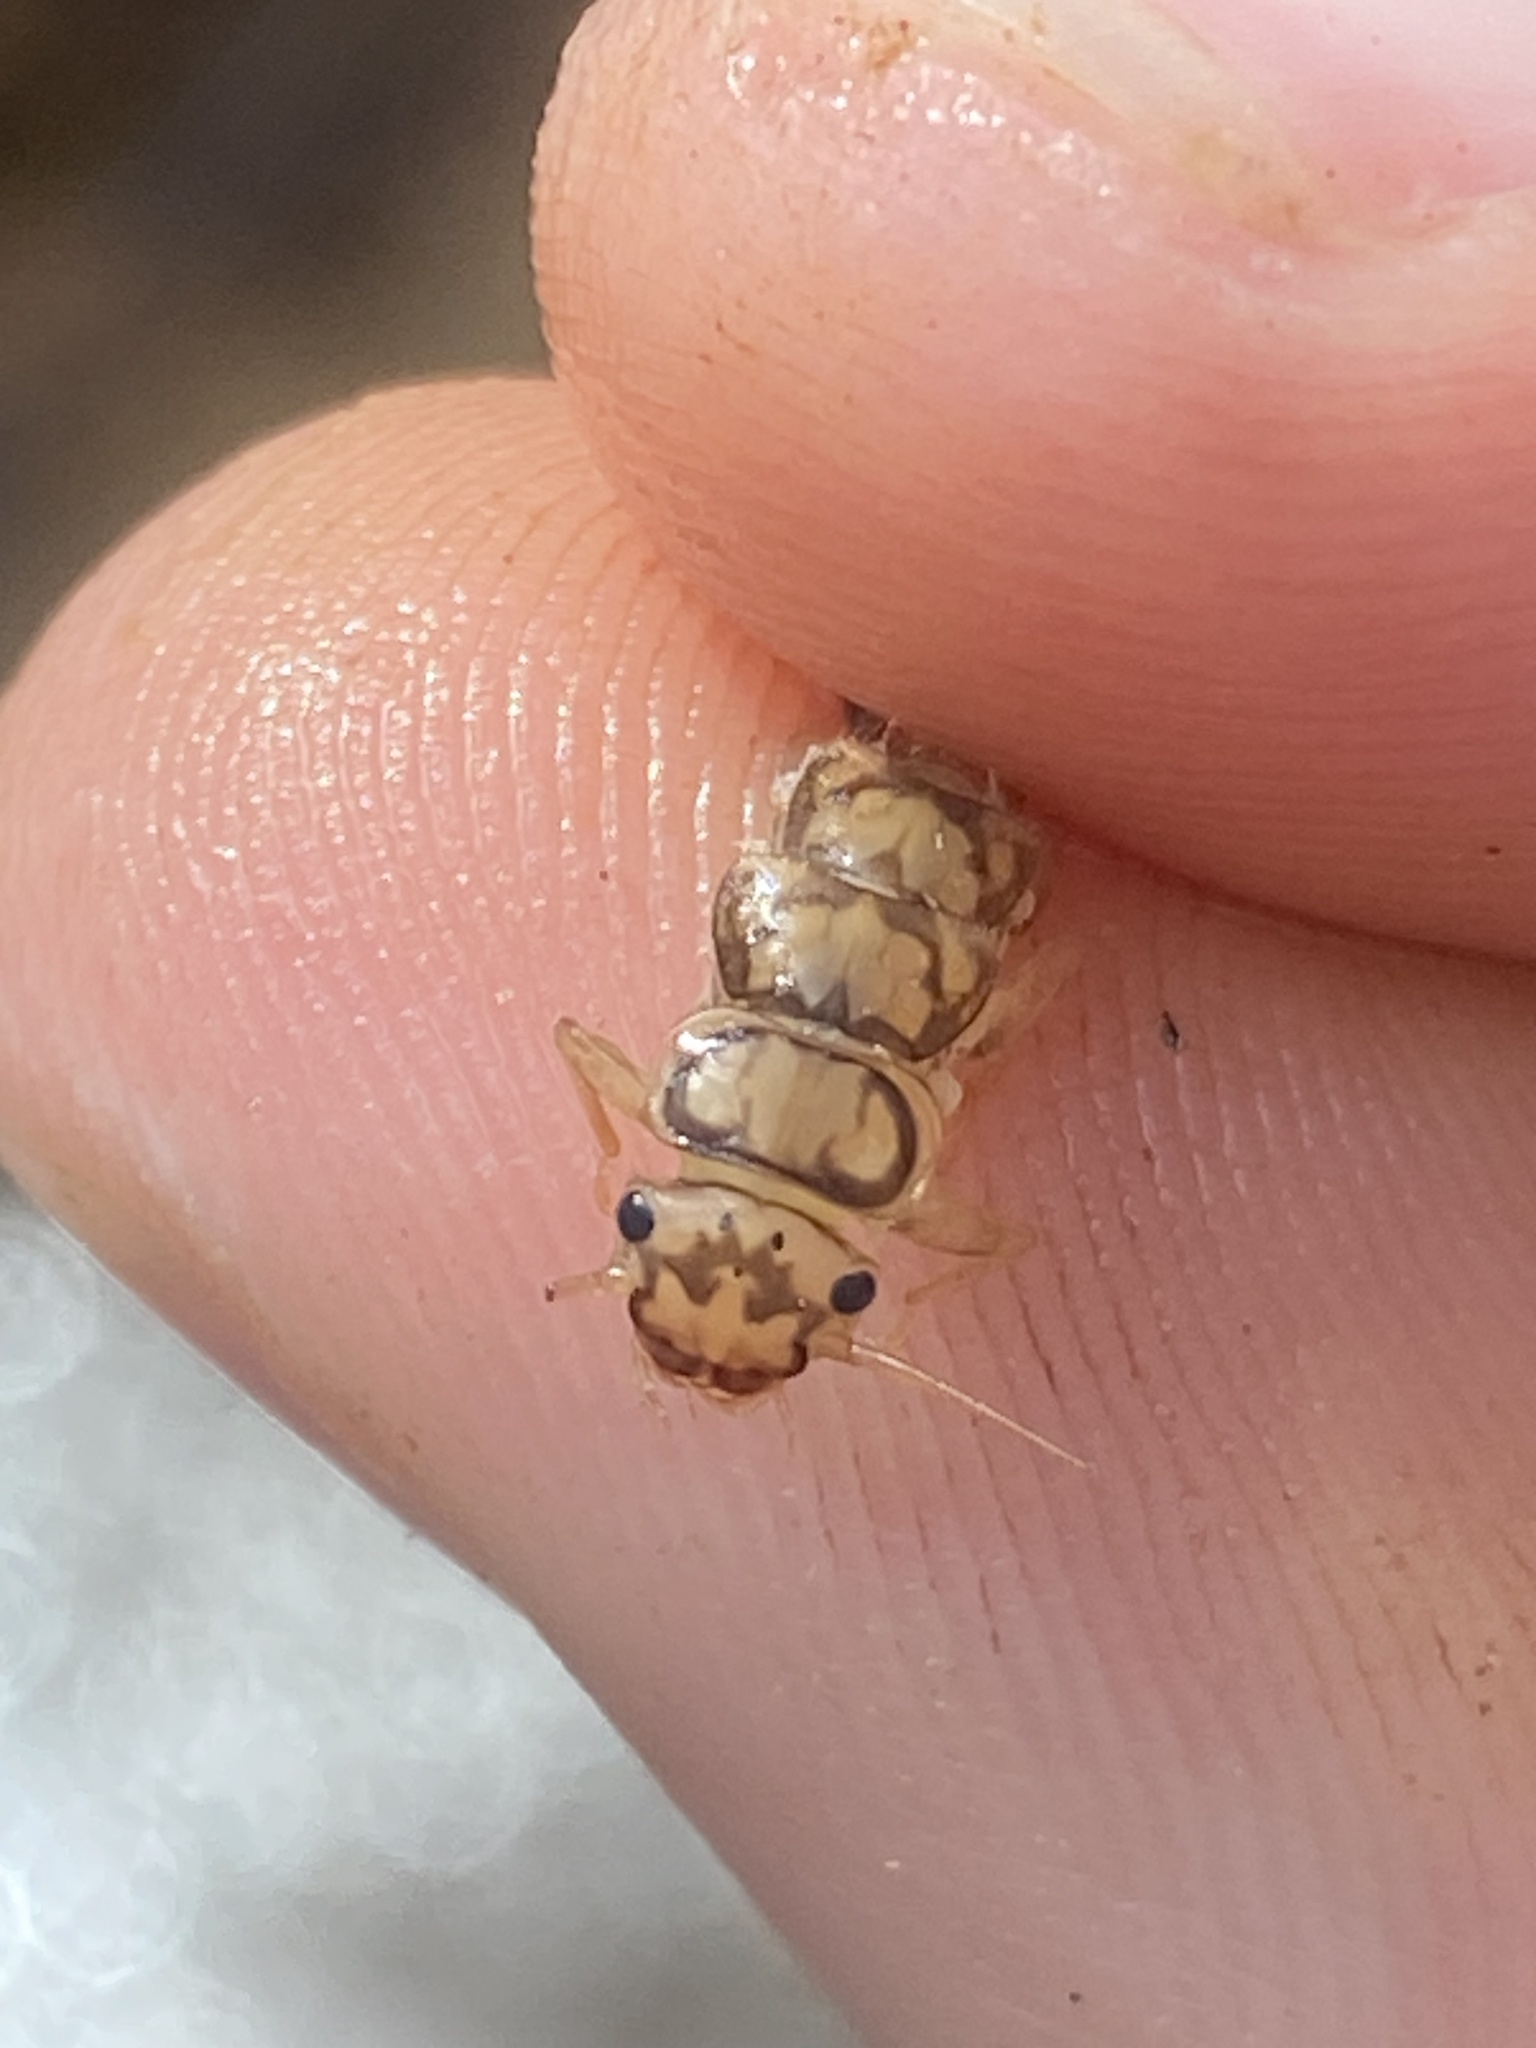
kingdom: Animalia
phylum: Arthropoda
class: Insecta
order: Plecoptera
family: Perlidae
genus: Eccoptura
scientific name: Eccoptura xanthenes
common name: Yellow stone
